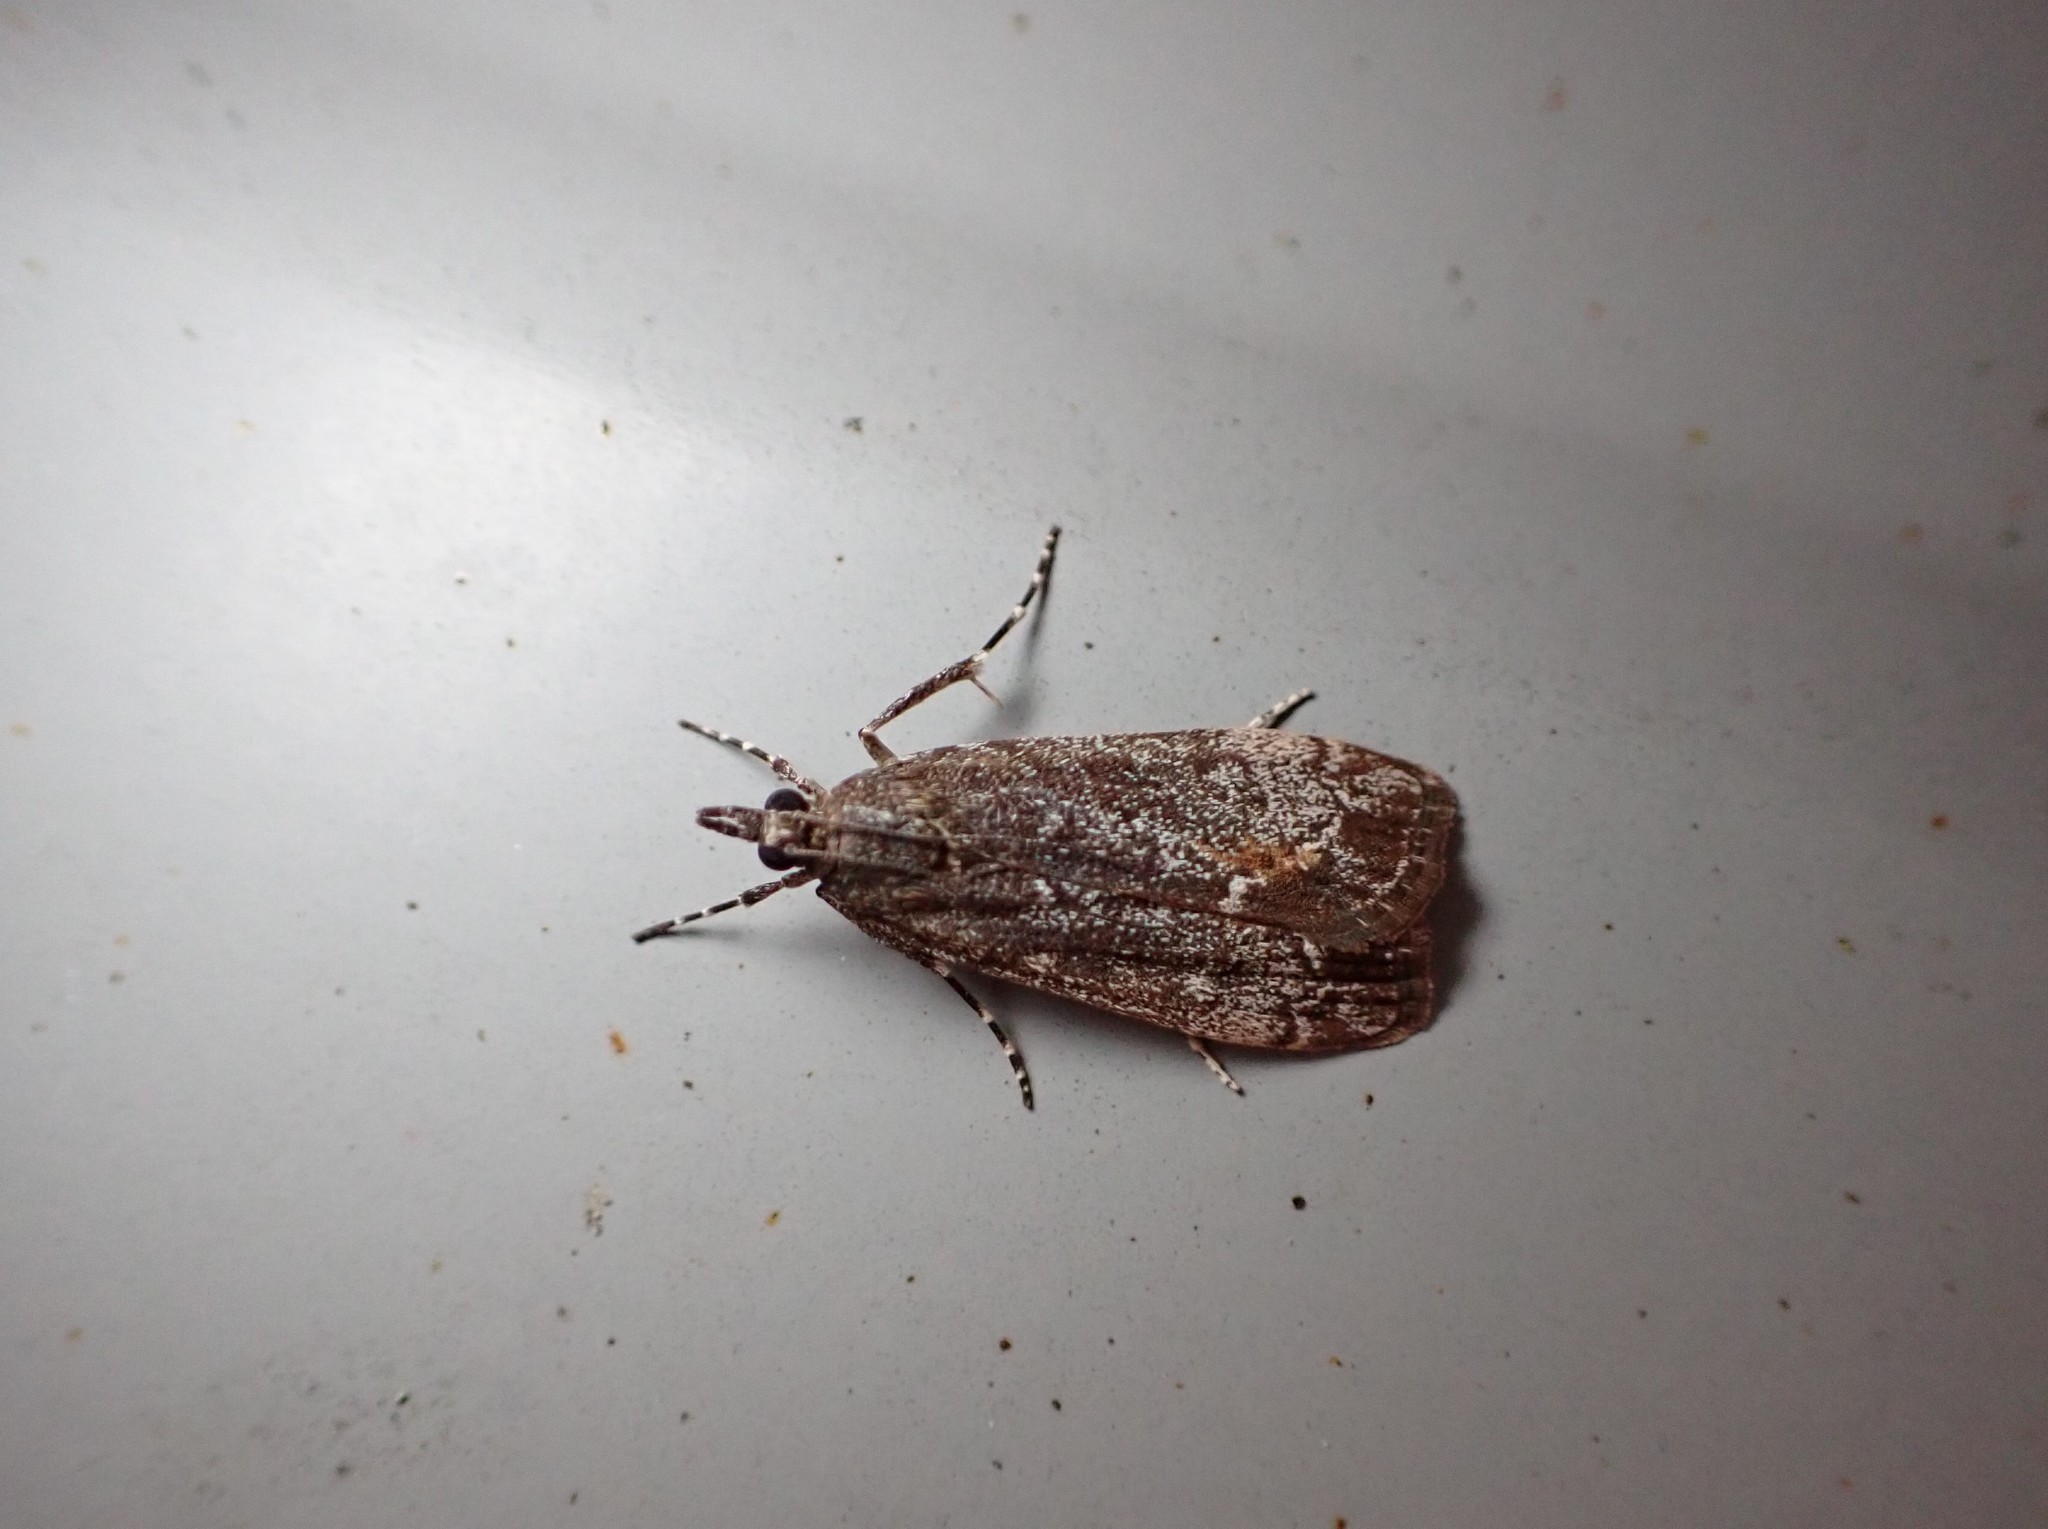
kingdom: Animalia
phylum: Arthropoda
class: Insecta
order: Lepidoptera
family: Crambidae
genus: Eudonia
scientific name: Eudonia submarginalis
